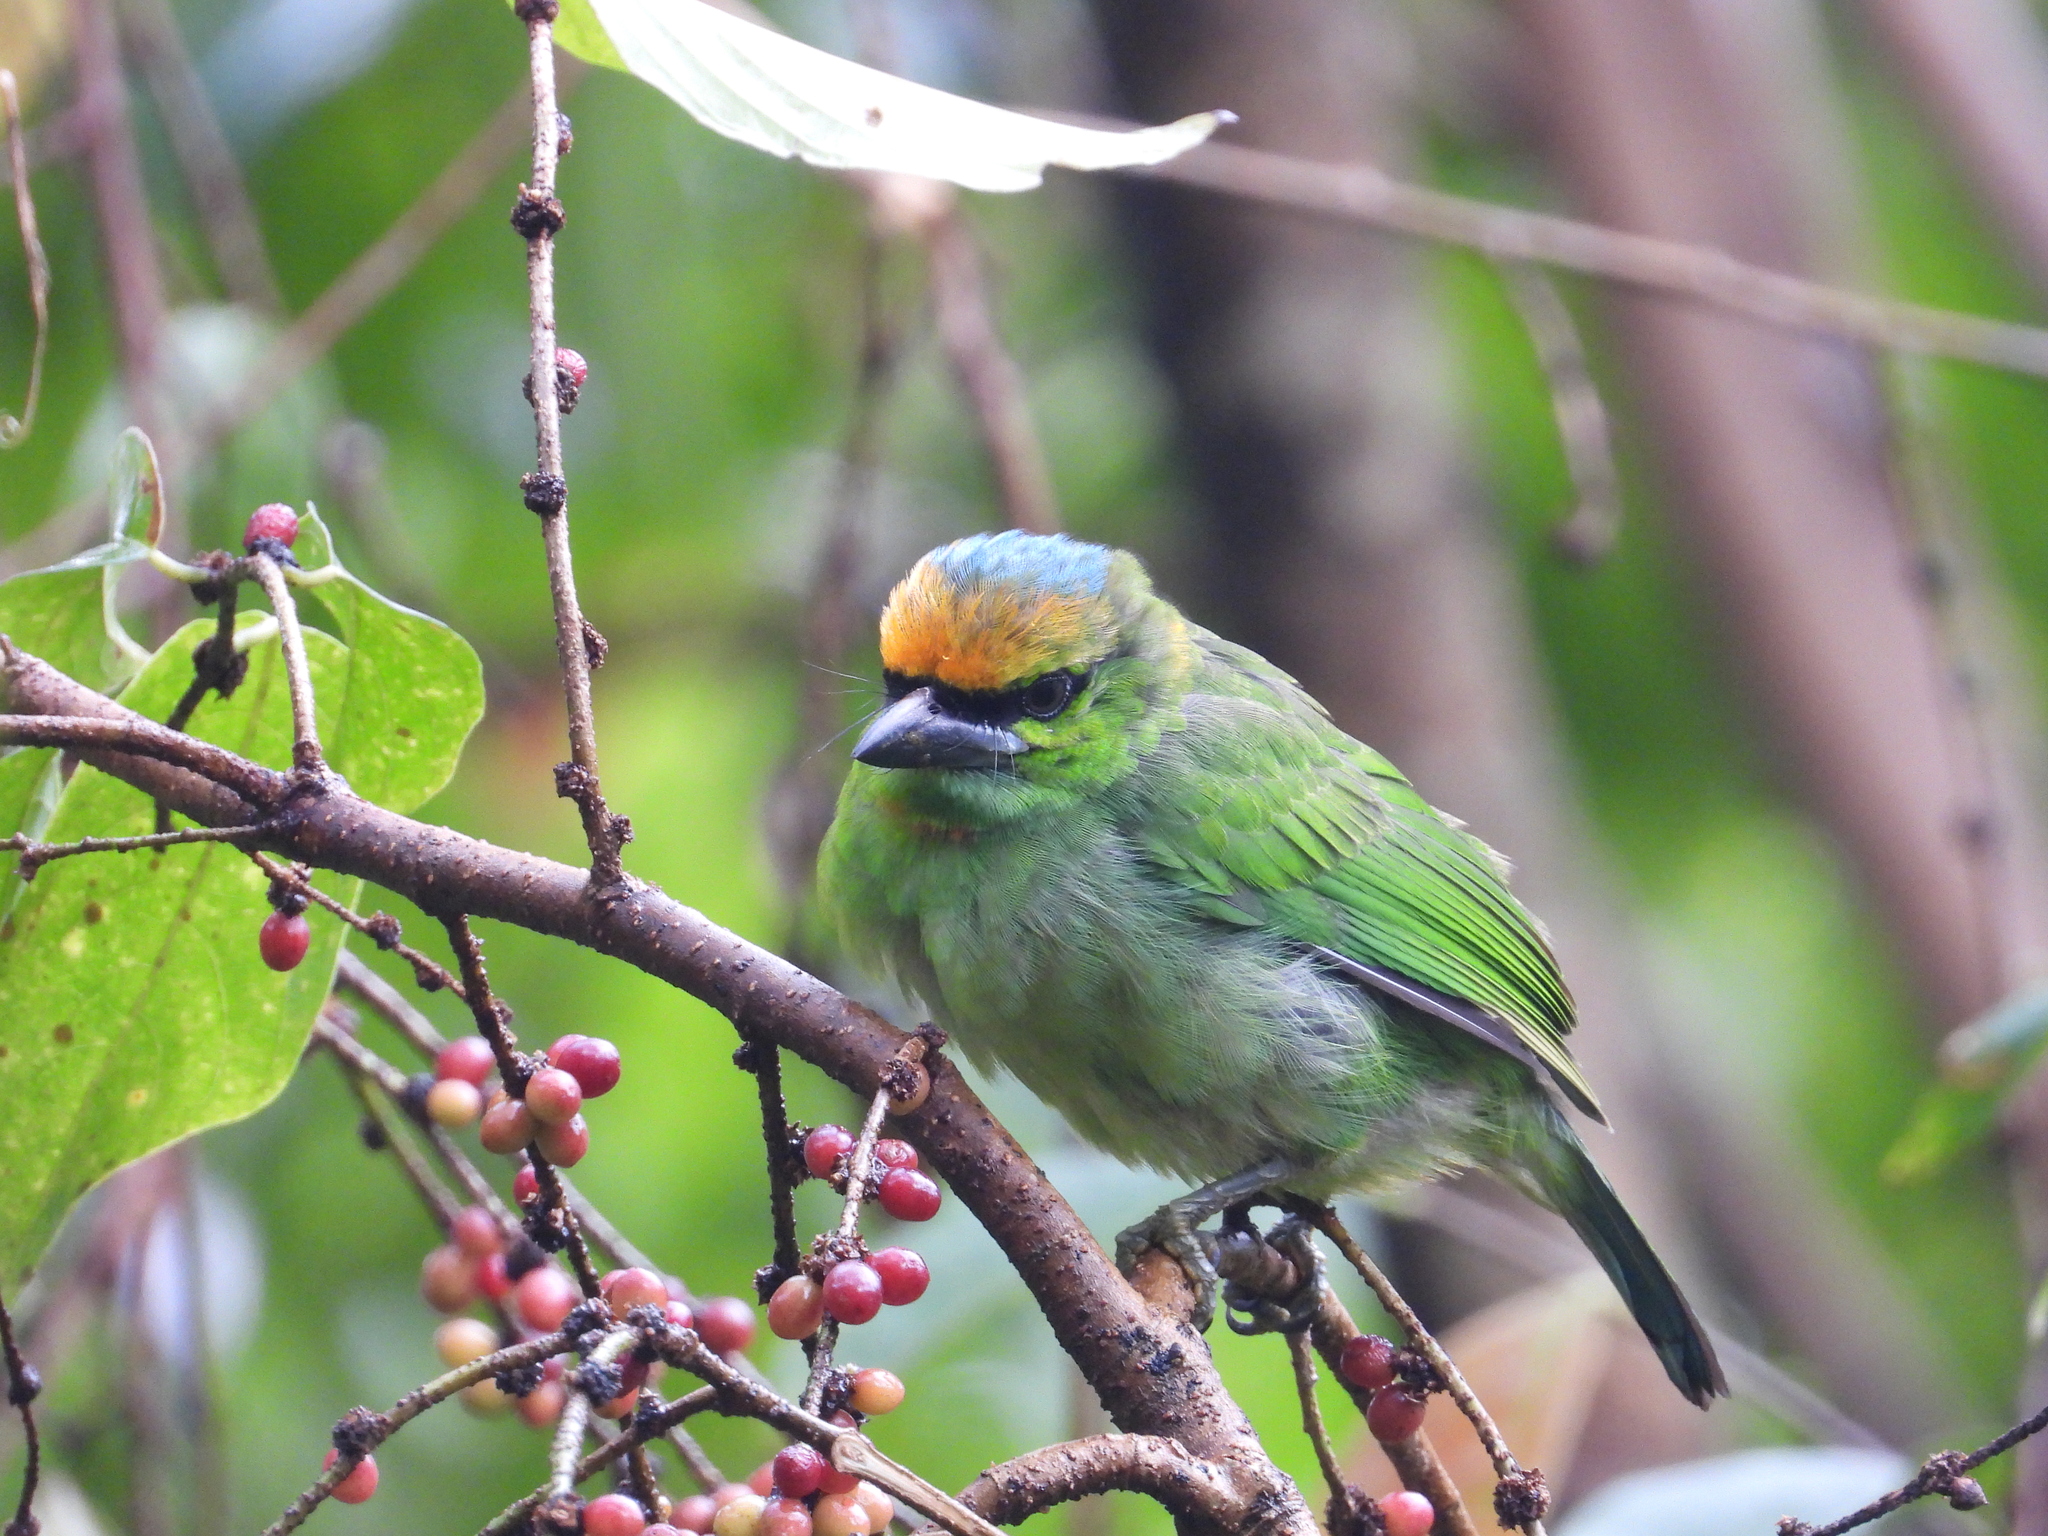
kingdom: Animalia
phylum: Chordata
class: Aves
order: Piciformes
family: Megalaimidae
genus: Psilopogon
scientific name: Psilopogon armillaris
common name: Flame-fronted barbet
